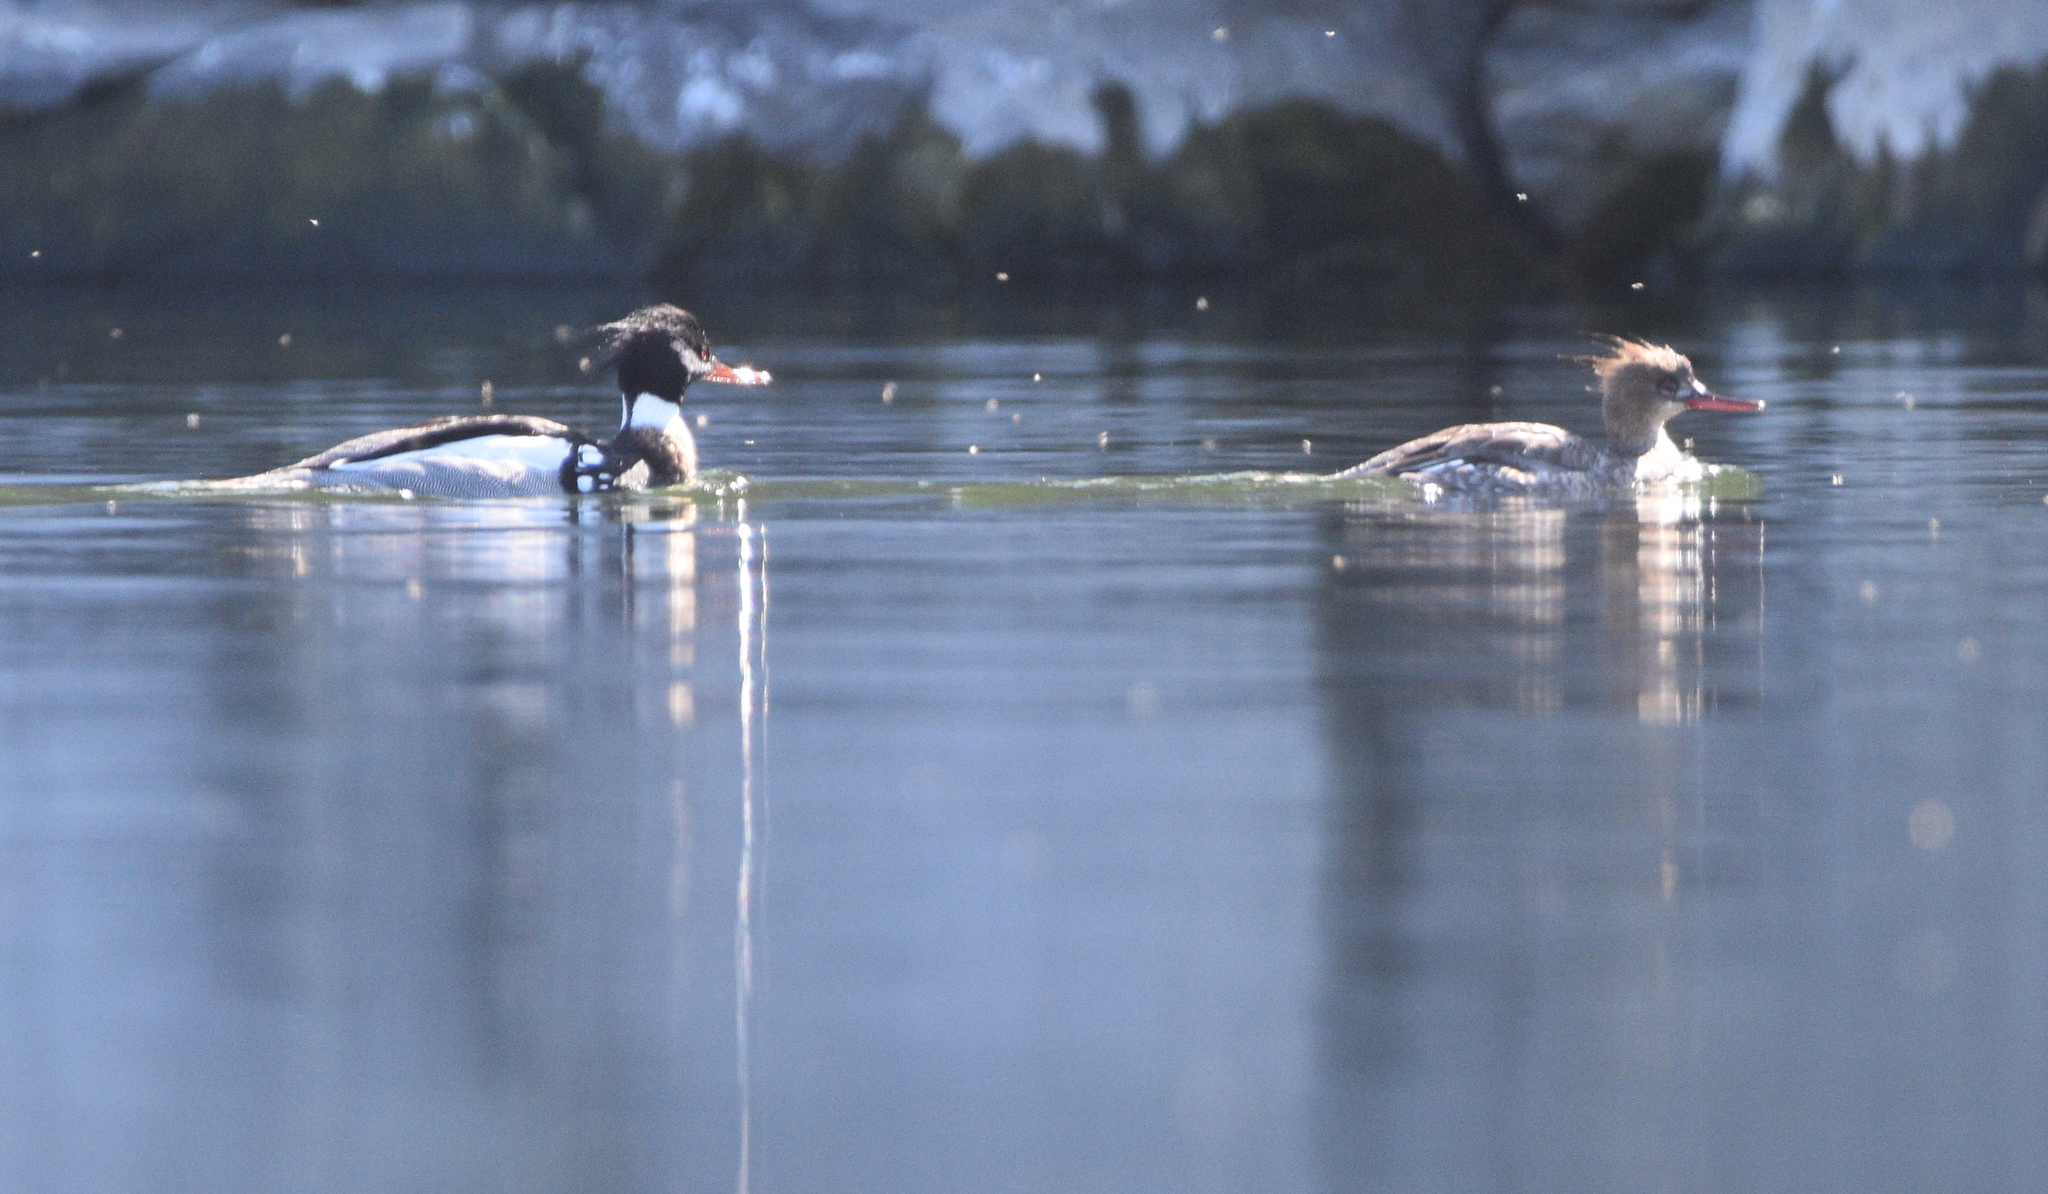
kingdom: Animalia
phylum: Chordata
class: Aves
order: Anseriformes
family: Anatidae
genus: Mergus
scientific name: Mergus serrator
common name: Red-breasted merganser
